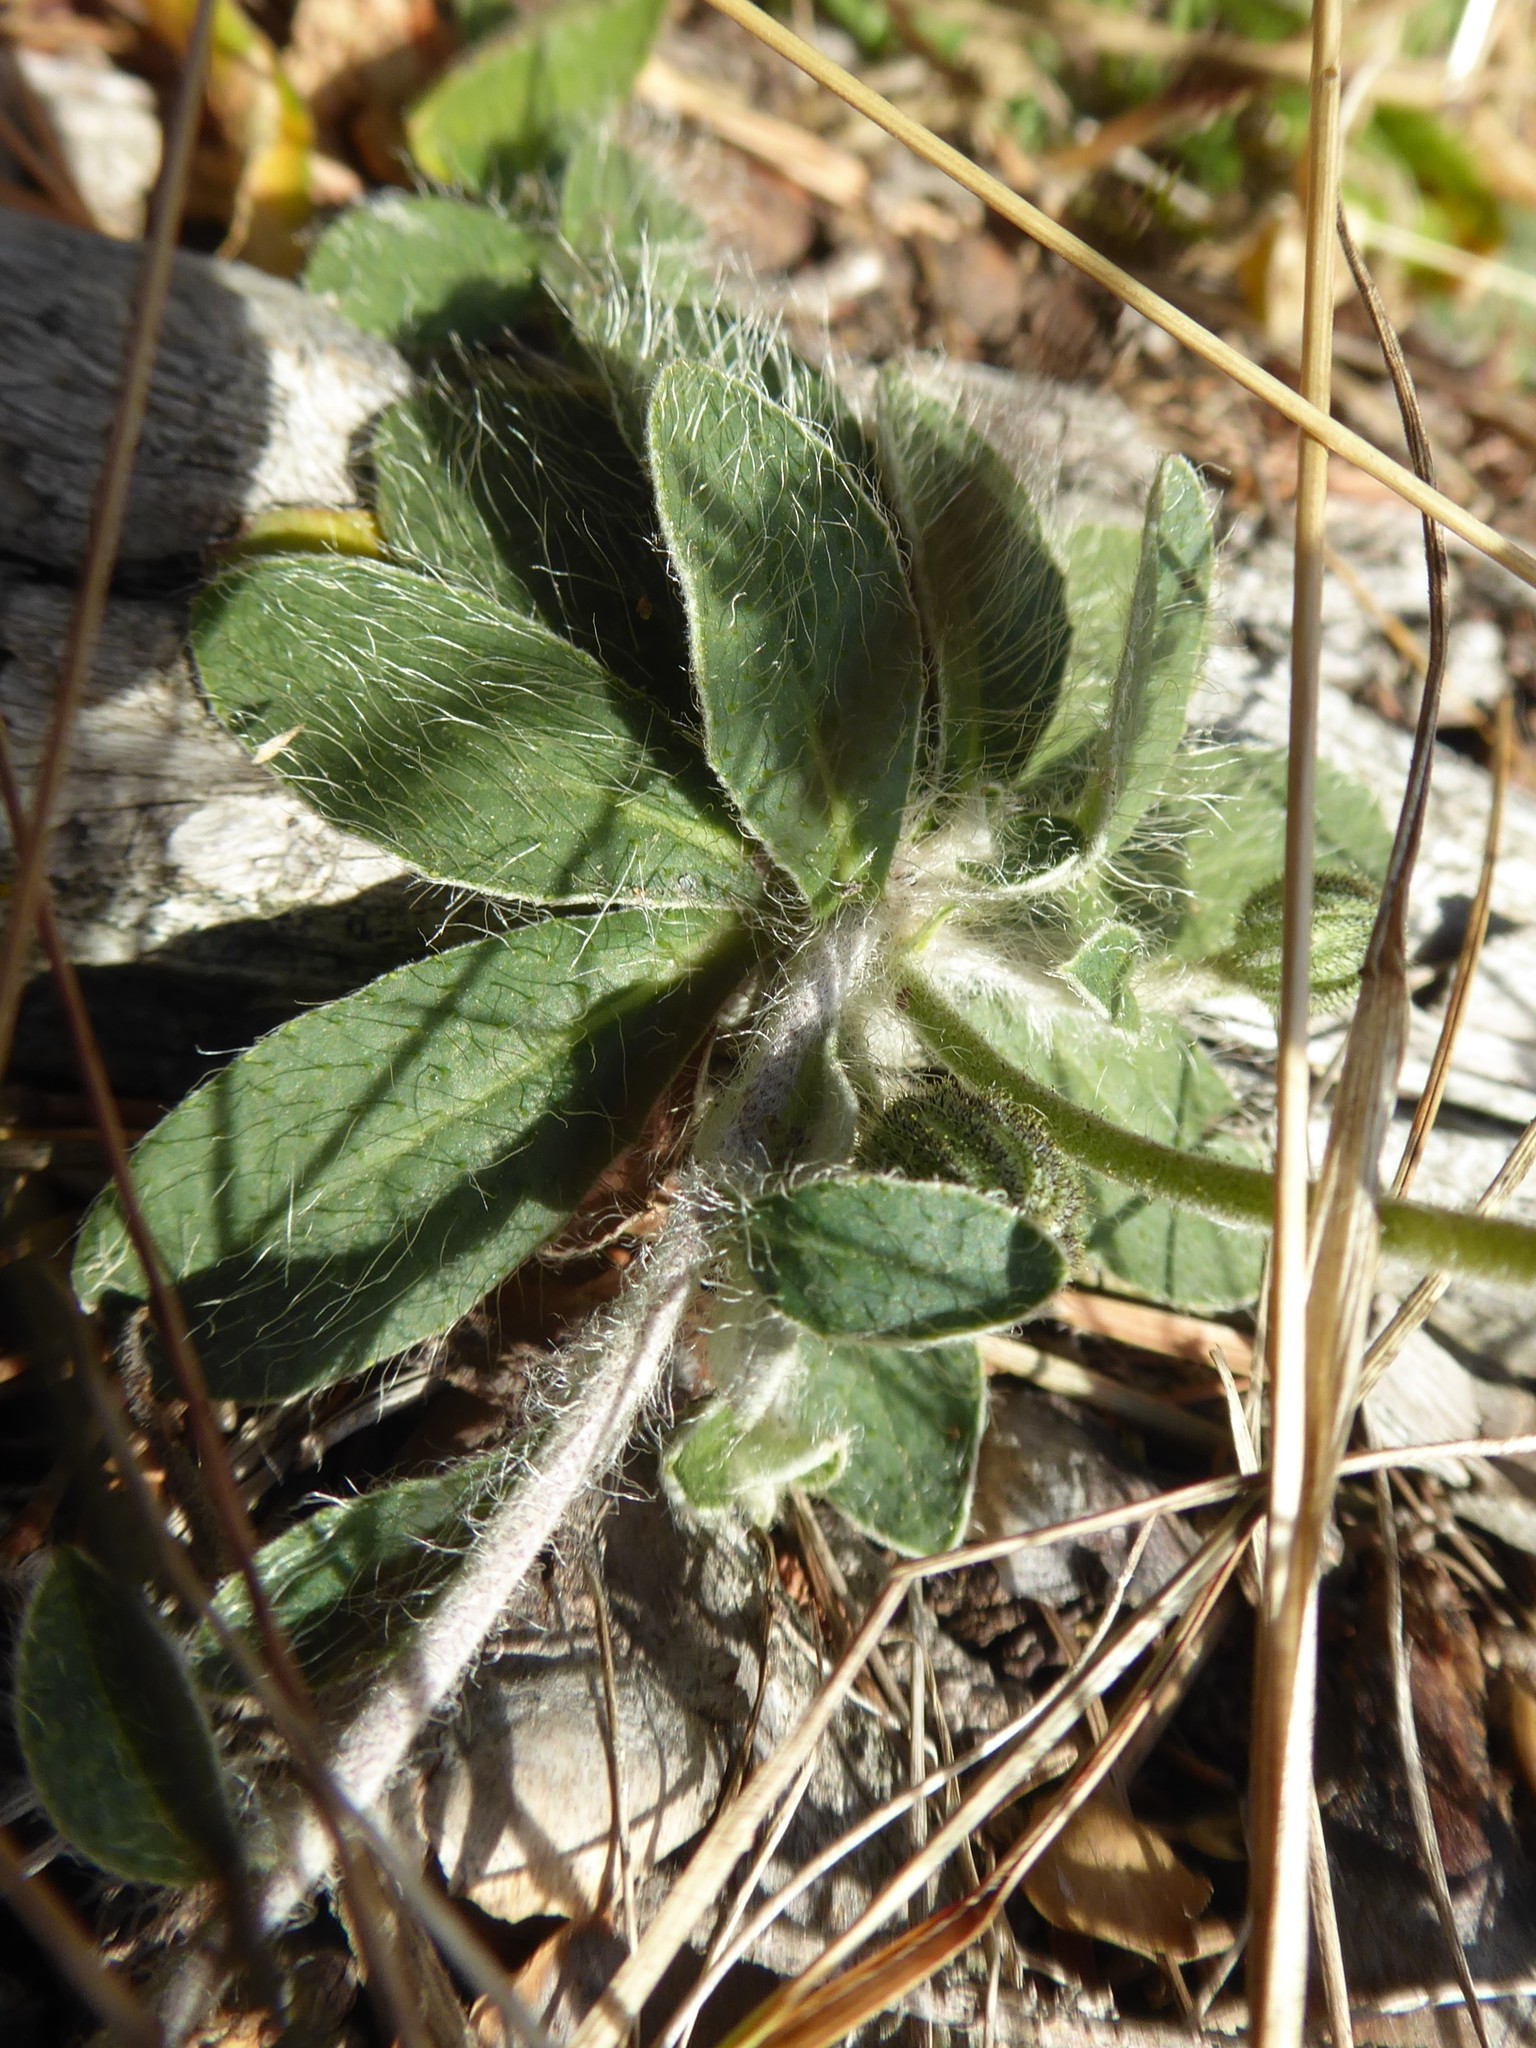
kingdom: Plantae
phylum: Tracheophyta
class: Magnoliopsida
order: Asterales
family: Asteraceae
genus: Pilosella
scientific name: Pilosella officinarum
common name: Mouse-ear hawkweed
